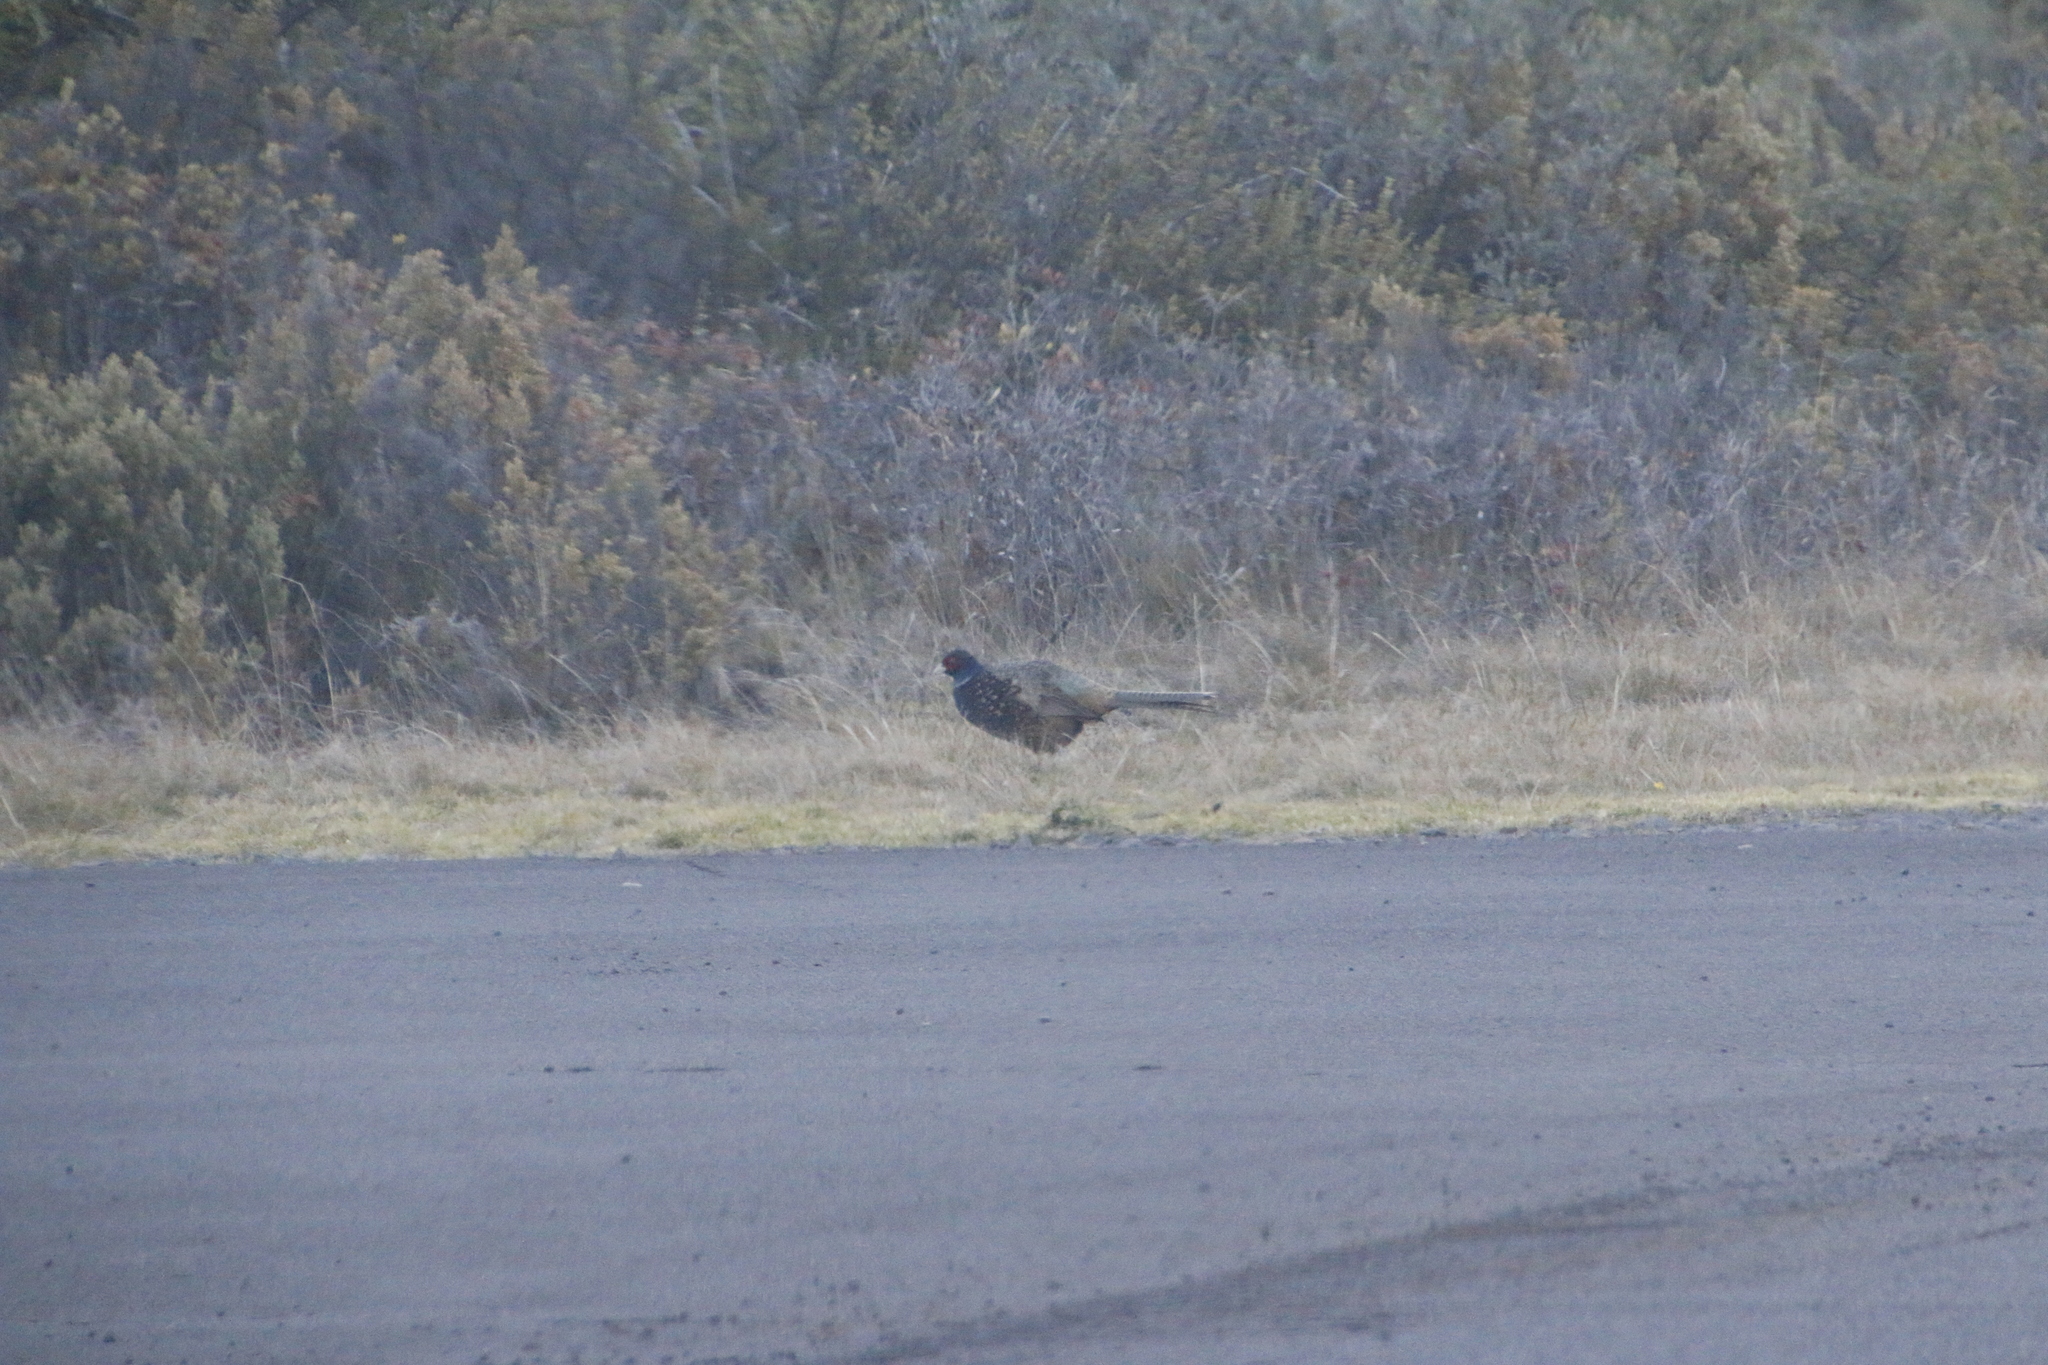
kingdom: Animalia
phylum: Chordata
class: Aves
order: Galliformes
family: Phasianidae
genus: Phasianus
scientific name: Phasianus colchicus
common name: Common pheasant
